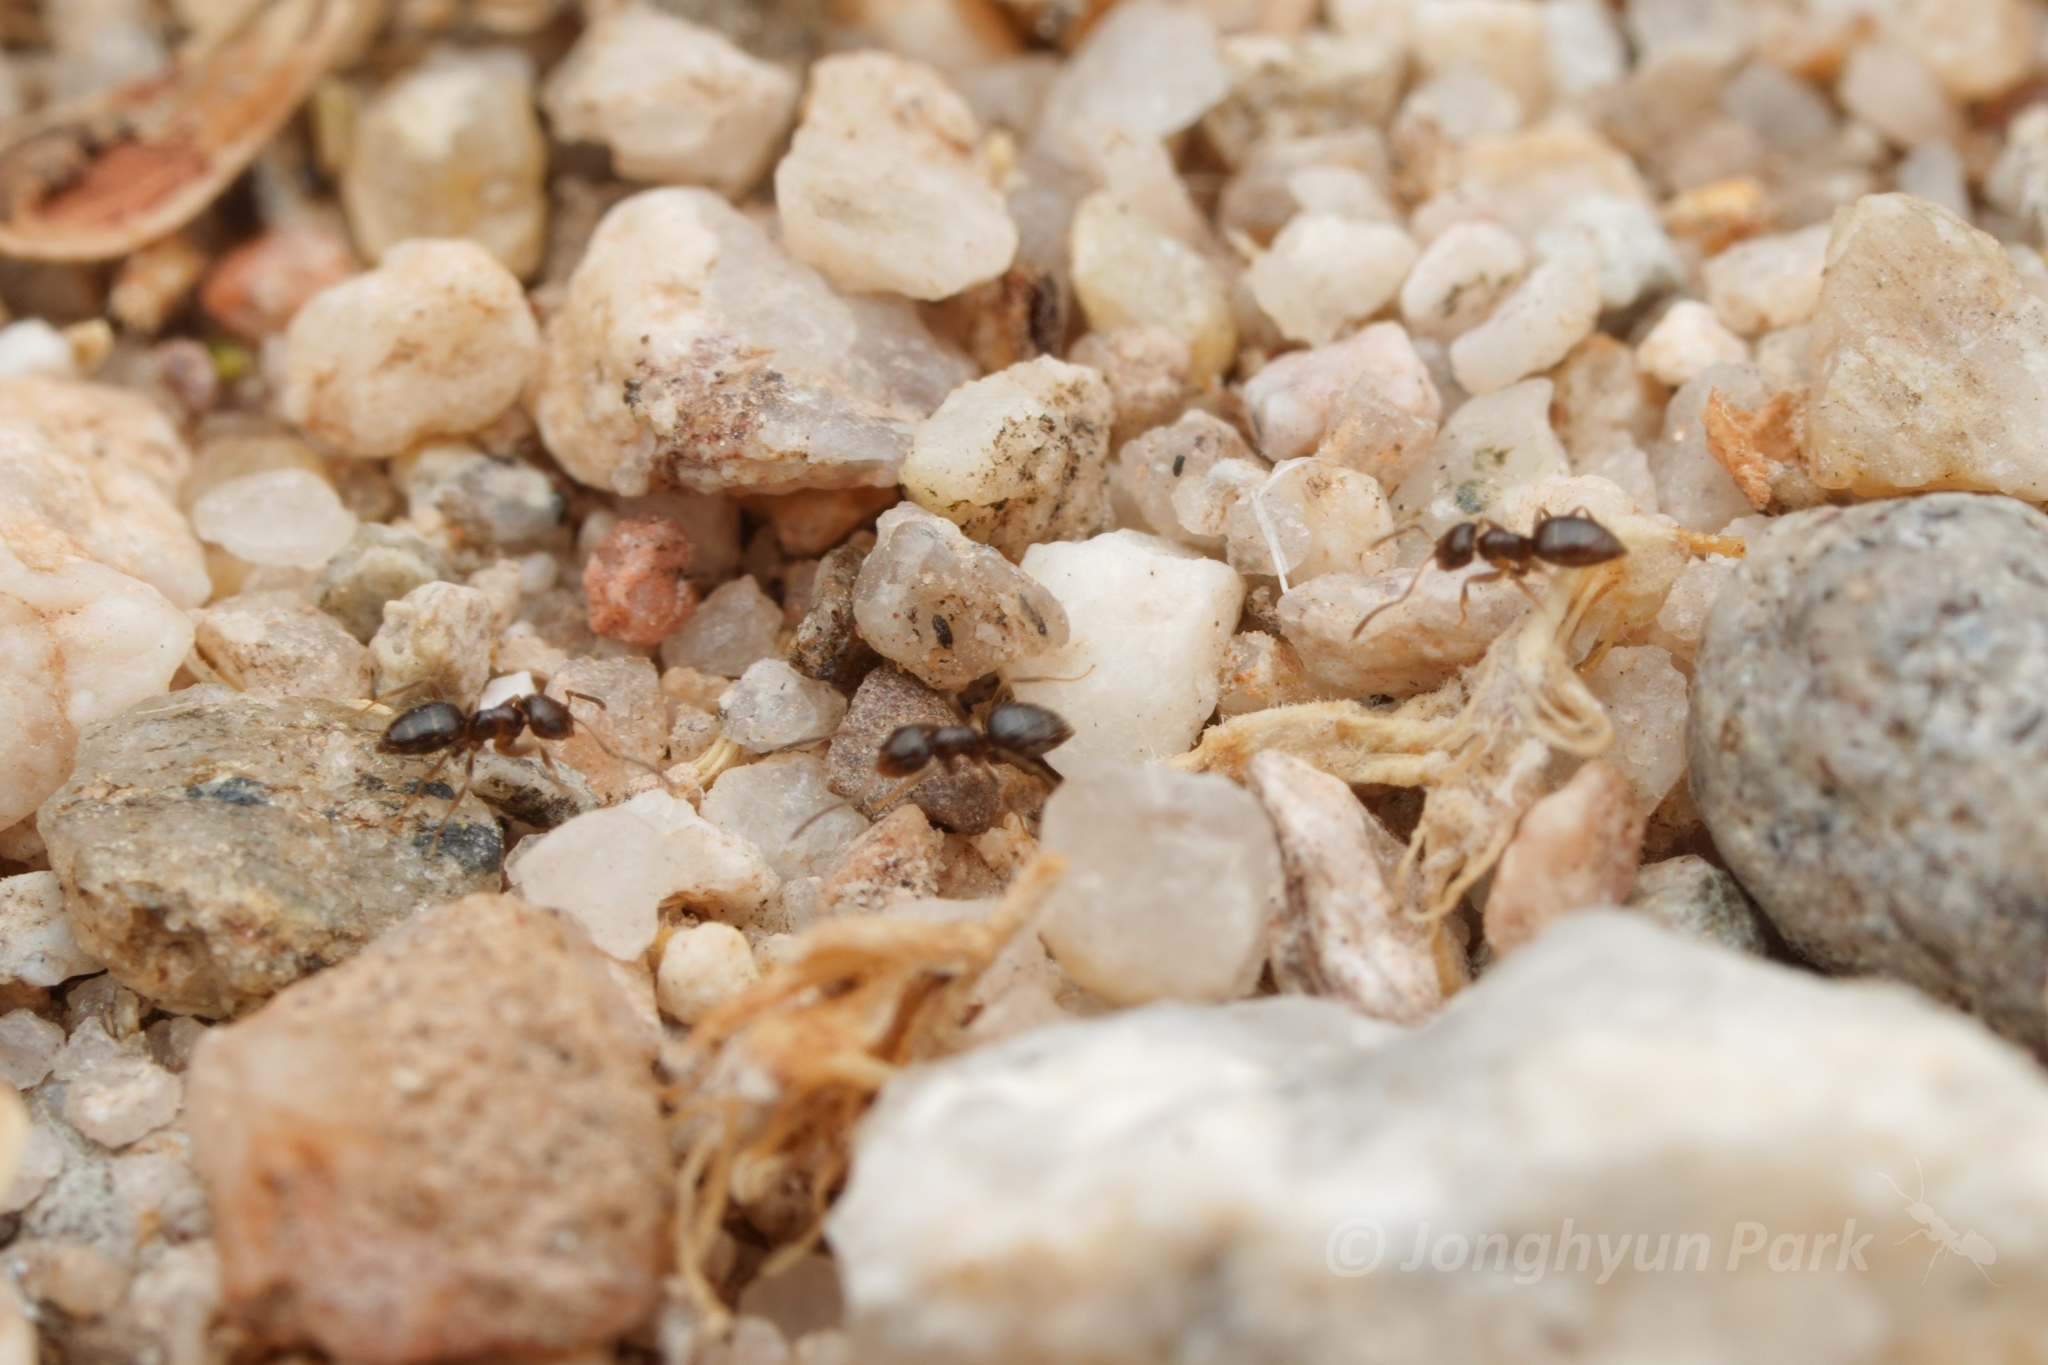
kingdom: Animalia
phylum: Arthropoda
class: Insecta
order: Hymenoptera
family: Formicidae
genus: Brachymyrmex
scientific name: Brachymyrmex patagonicus
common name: Dark rover ant
